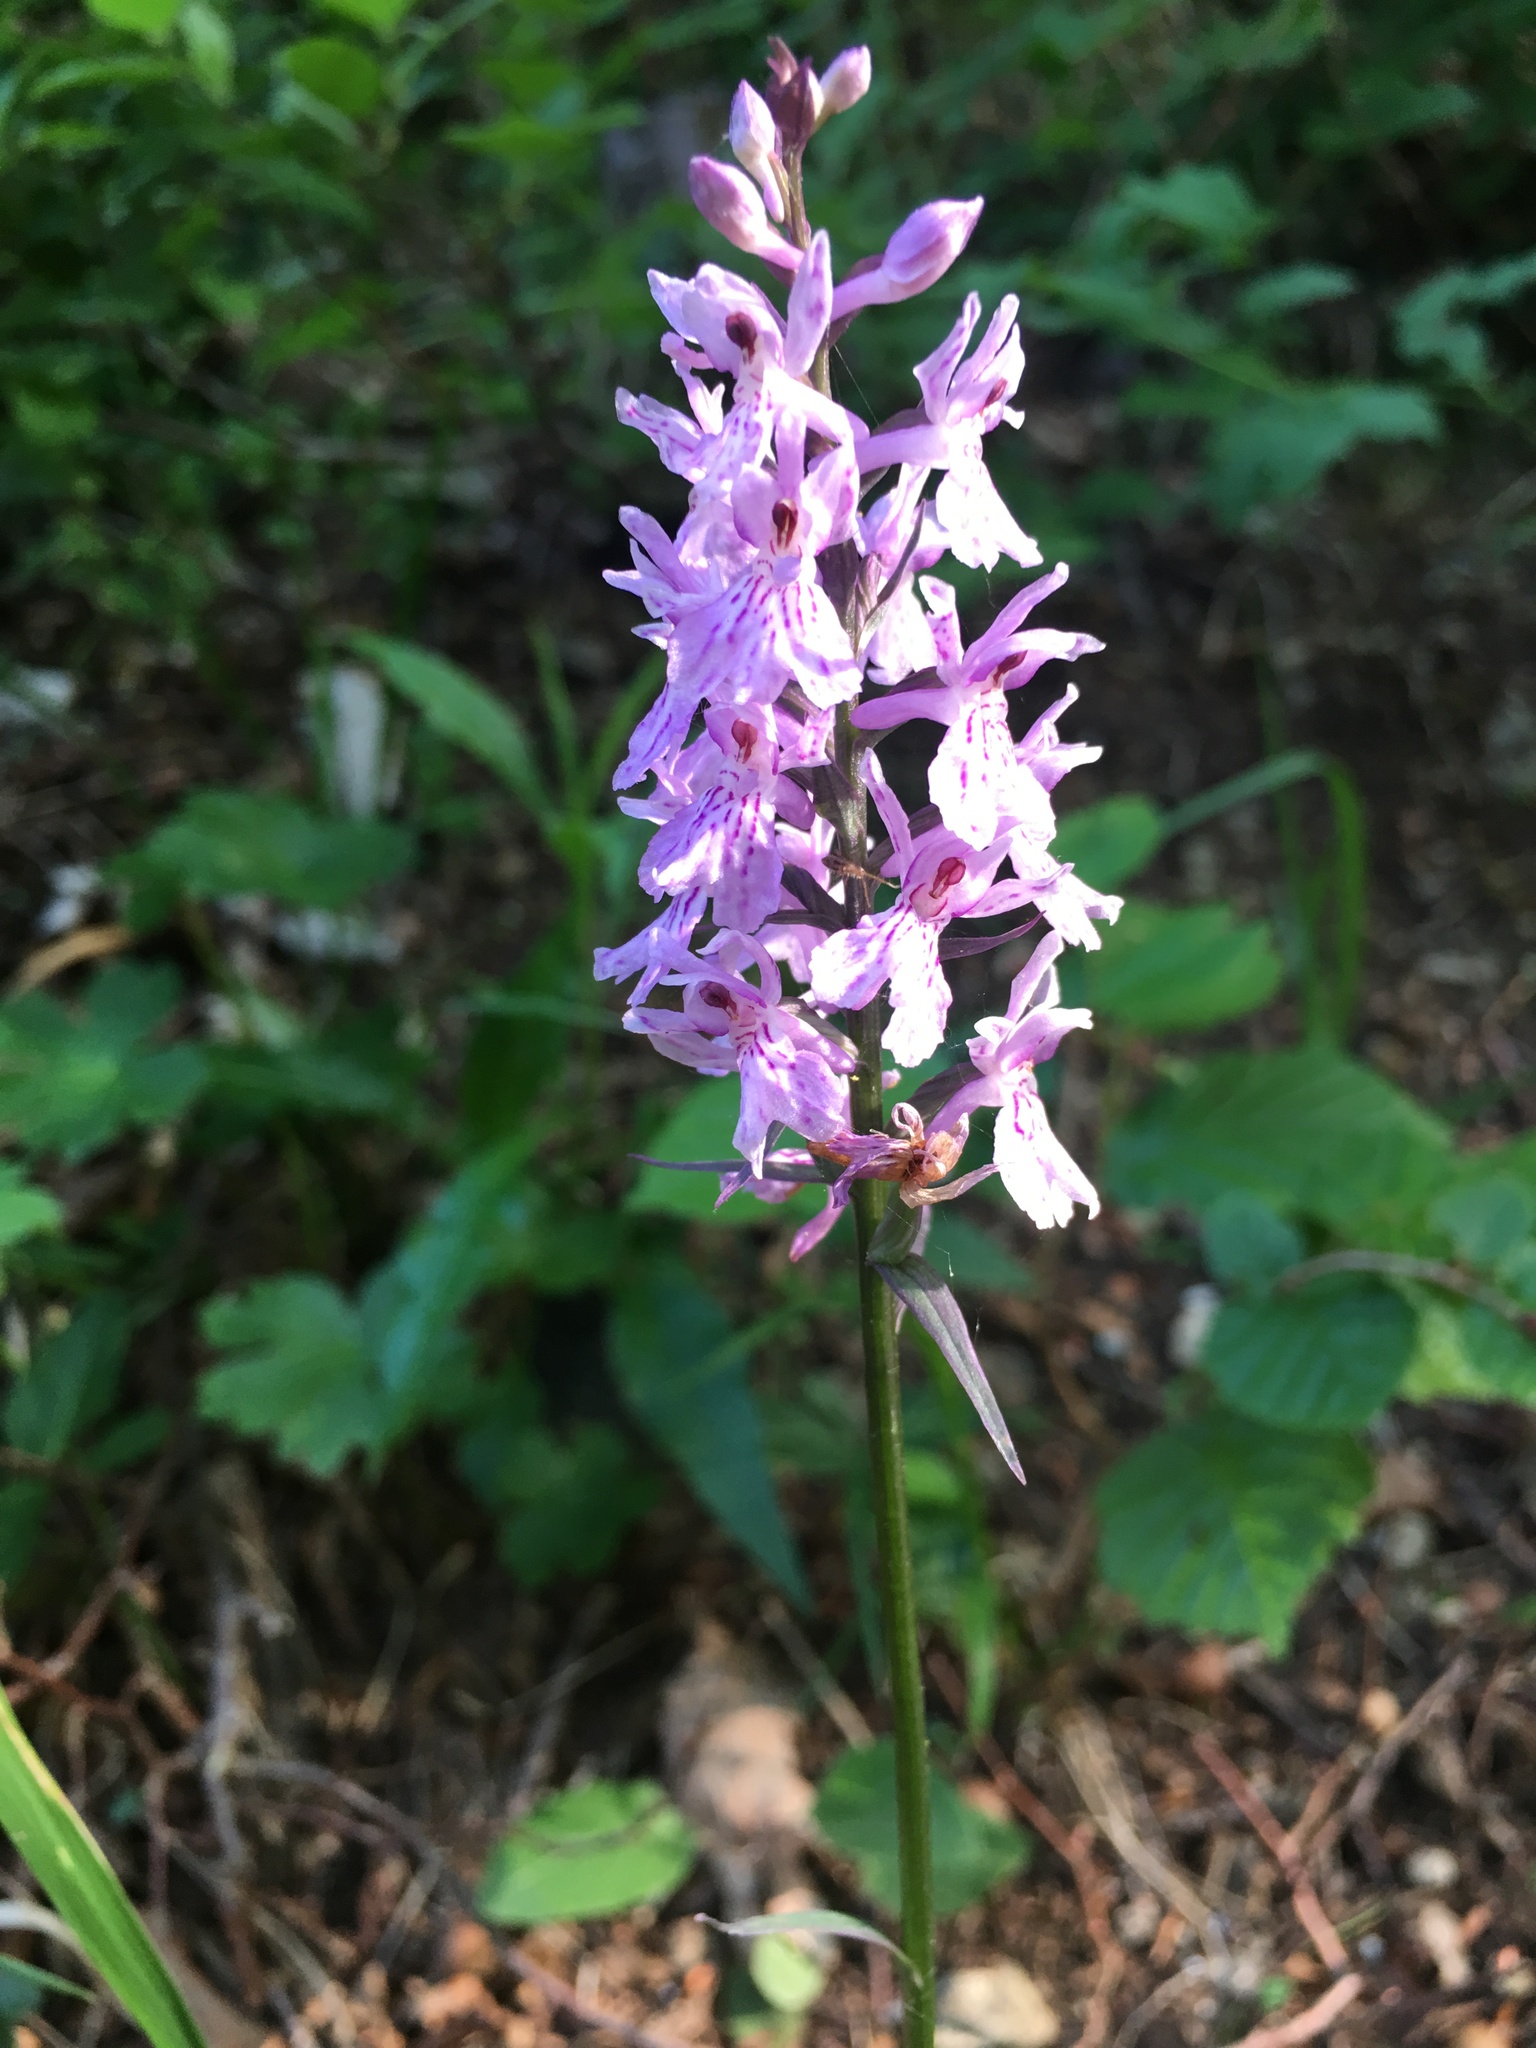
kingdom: Plantae
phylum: Tracheophyta
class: Liliopsida
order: Asparagales
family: Orchidaceae
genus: Dactylorhiza
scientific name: Dactylorhiza maculata
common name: Heath spotted-orchid
